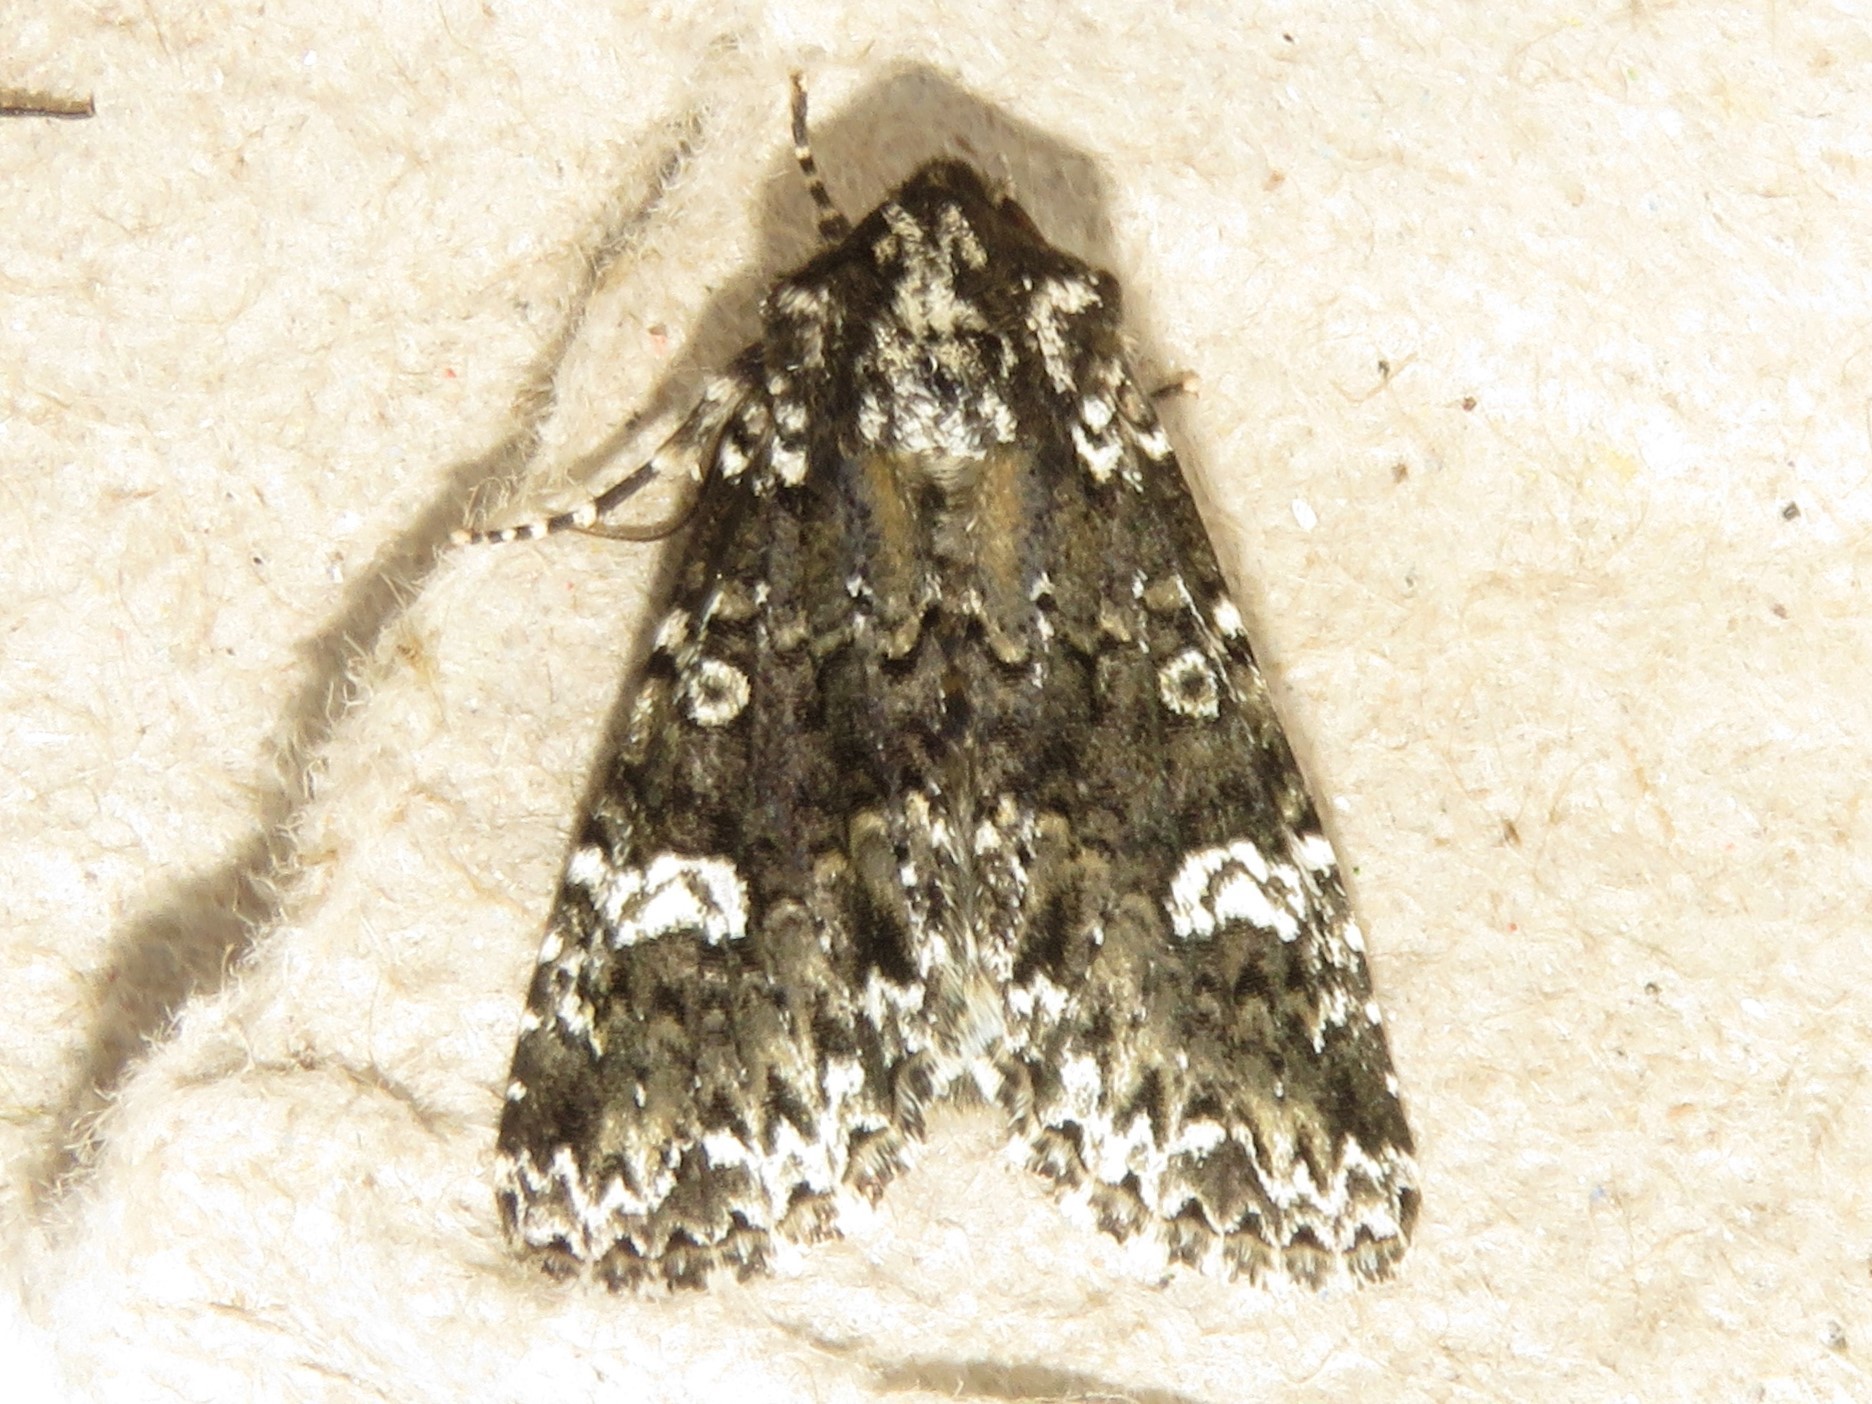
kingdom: Animalia
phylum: Arthropoda
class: Insecta
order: Lepidoptera
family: Noctuidae
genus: Melanchra
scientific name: Melanchra adjuncta
